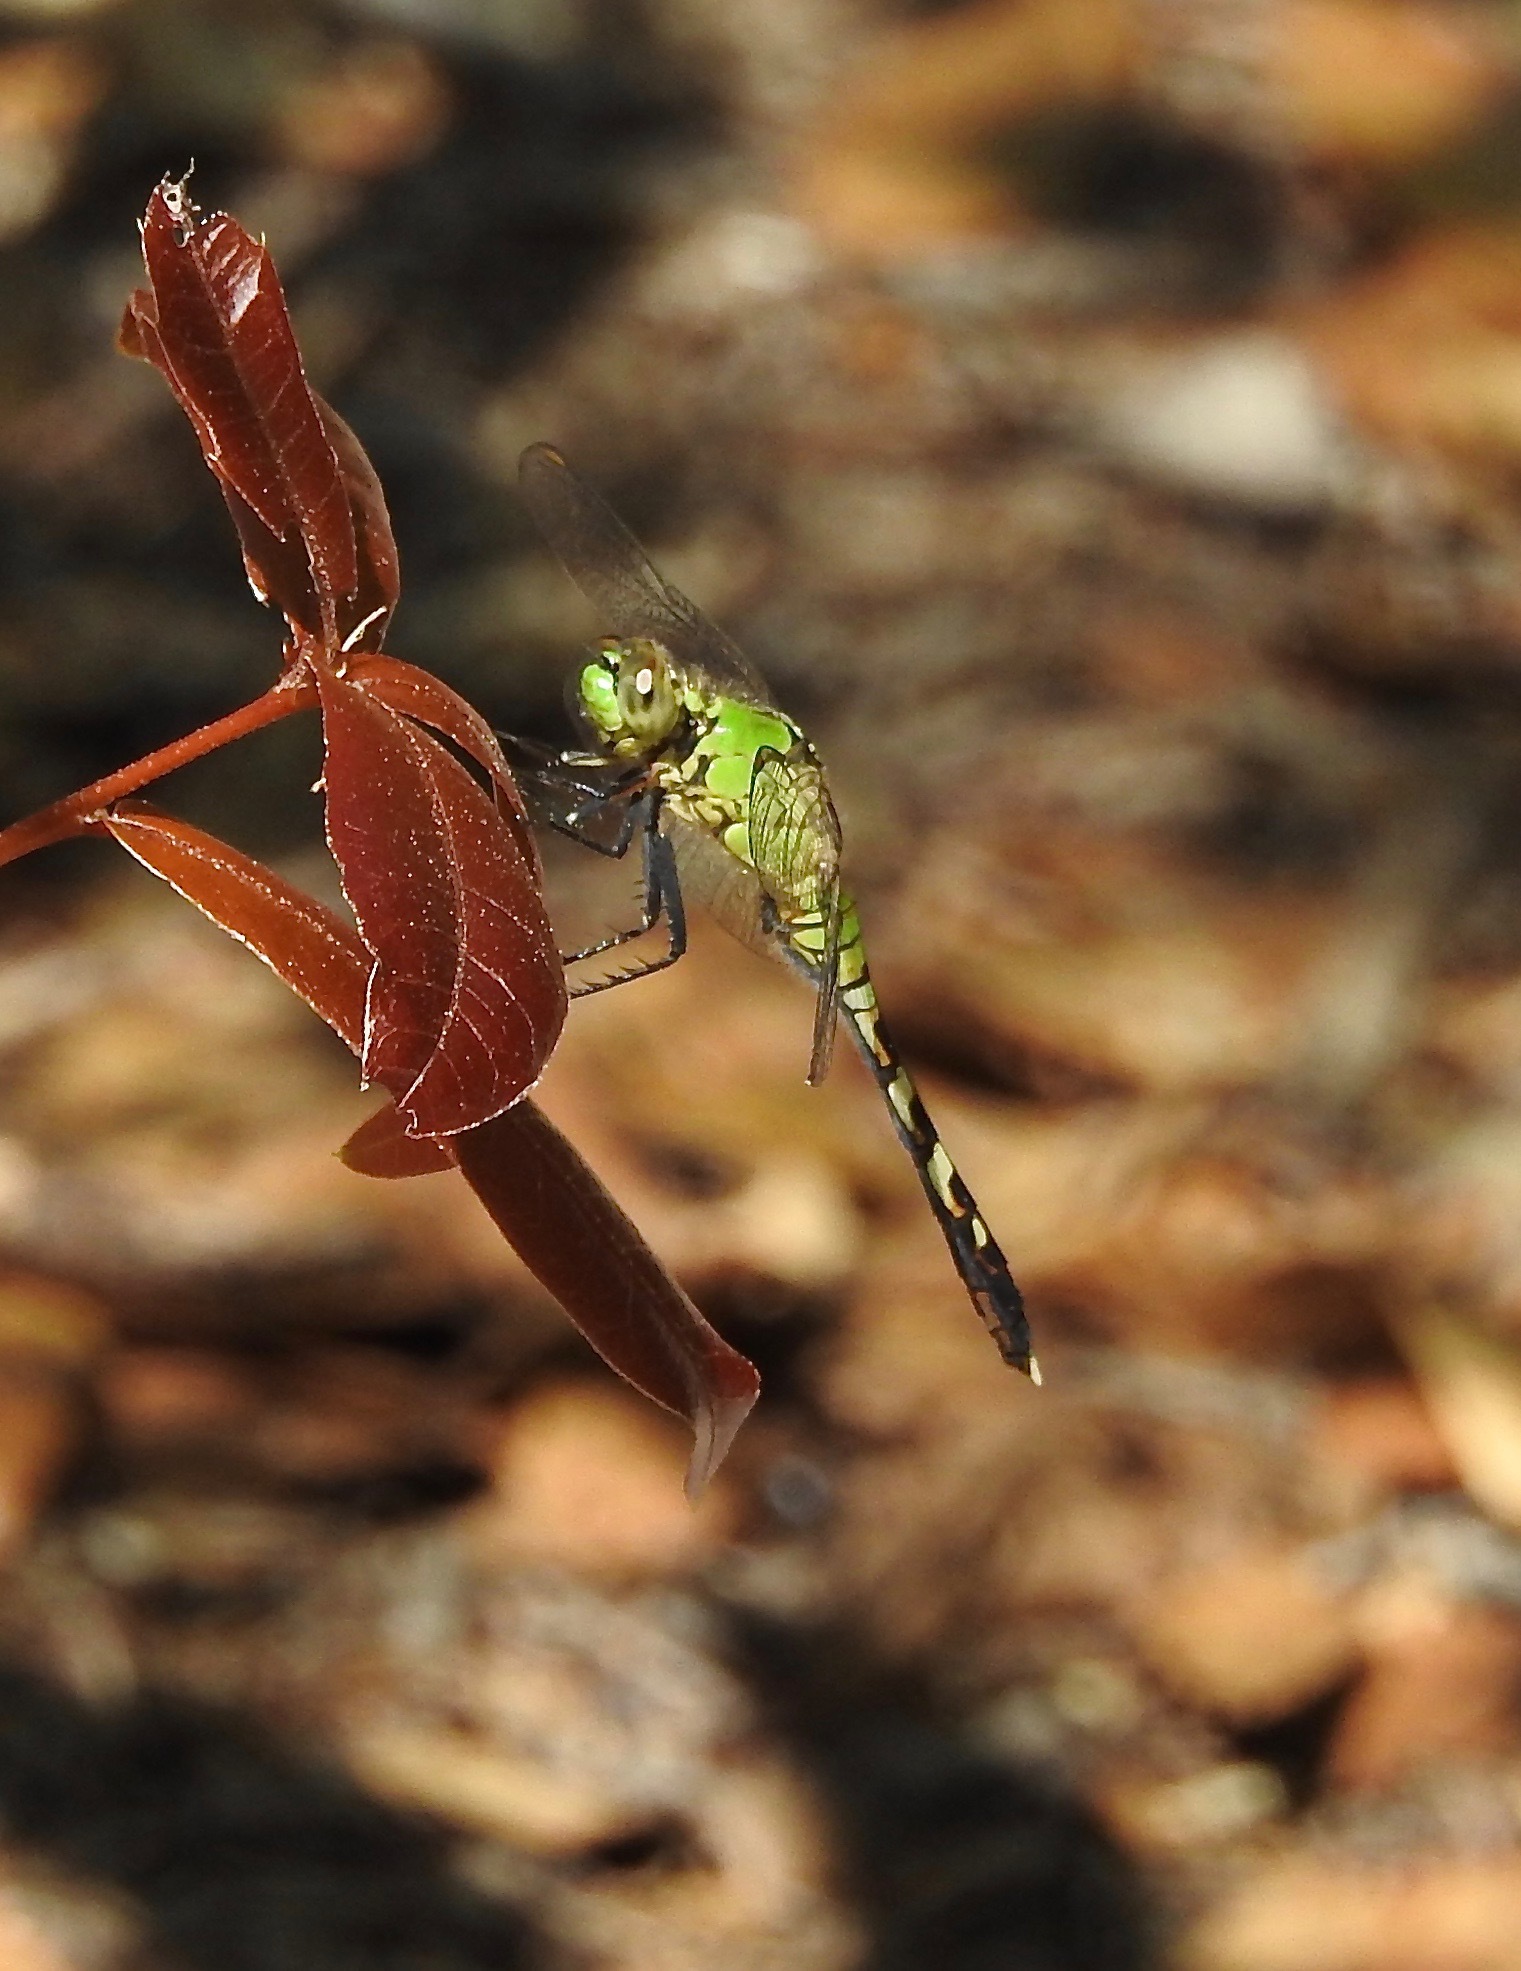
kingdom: Animalia
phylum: Arthropoda
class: Insecta
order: Odonata
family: Libellulidae
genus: Erythemis
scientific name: Erythemis simplicicollis
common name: Eastern pondhawk
